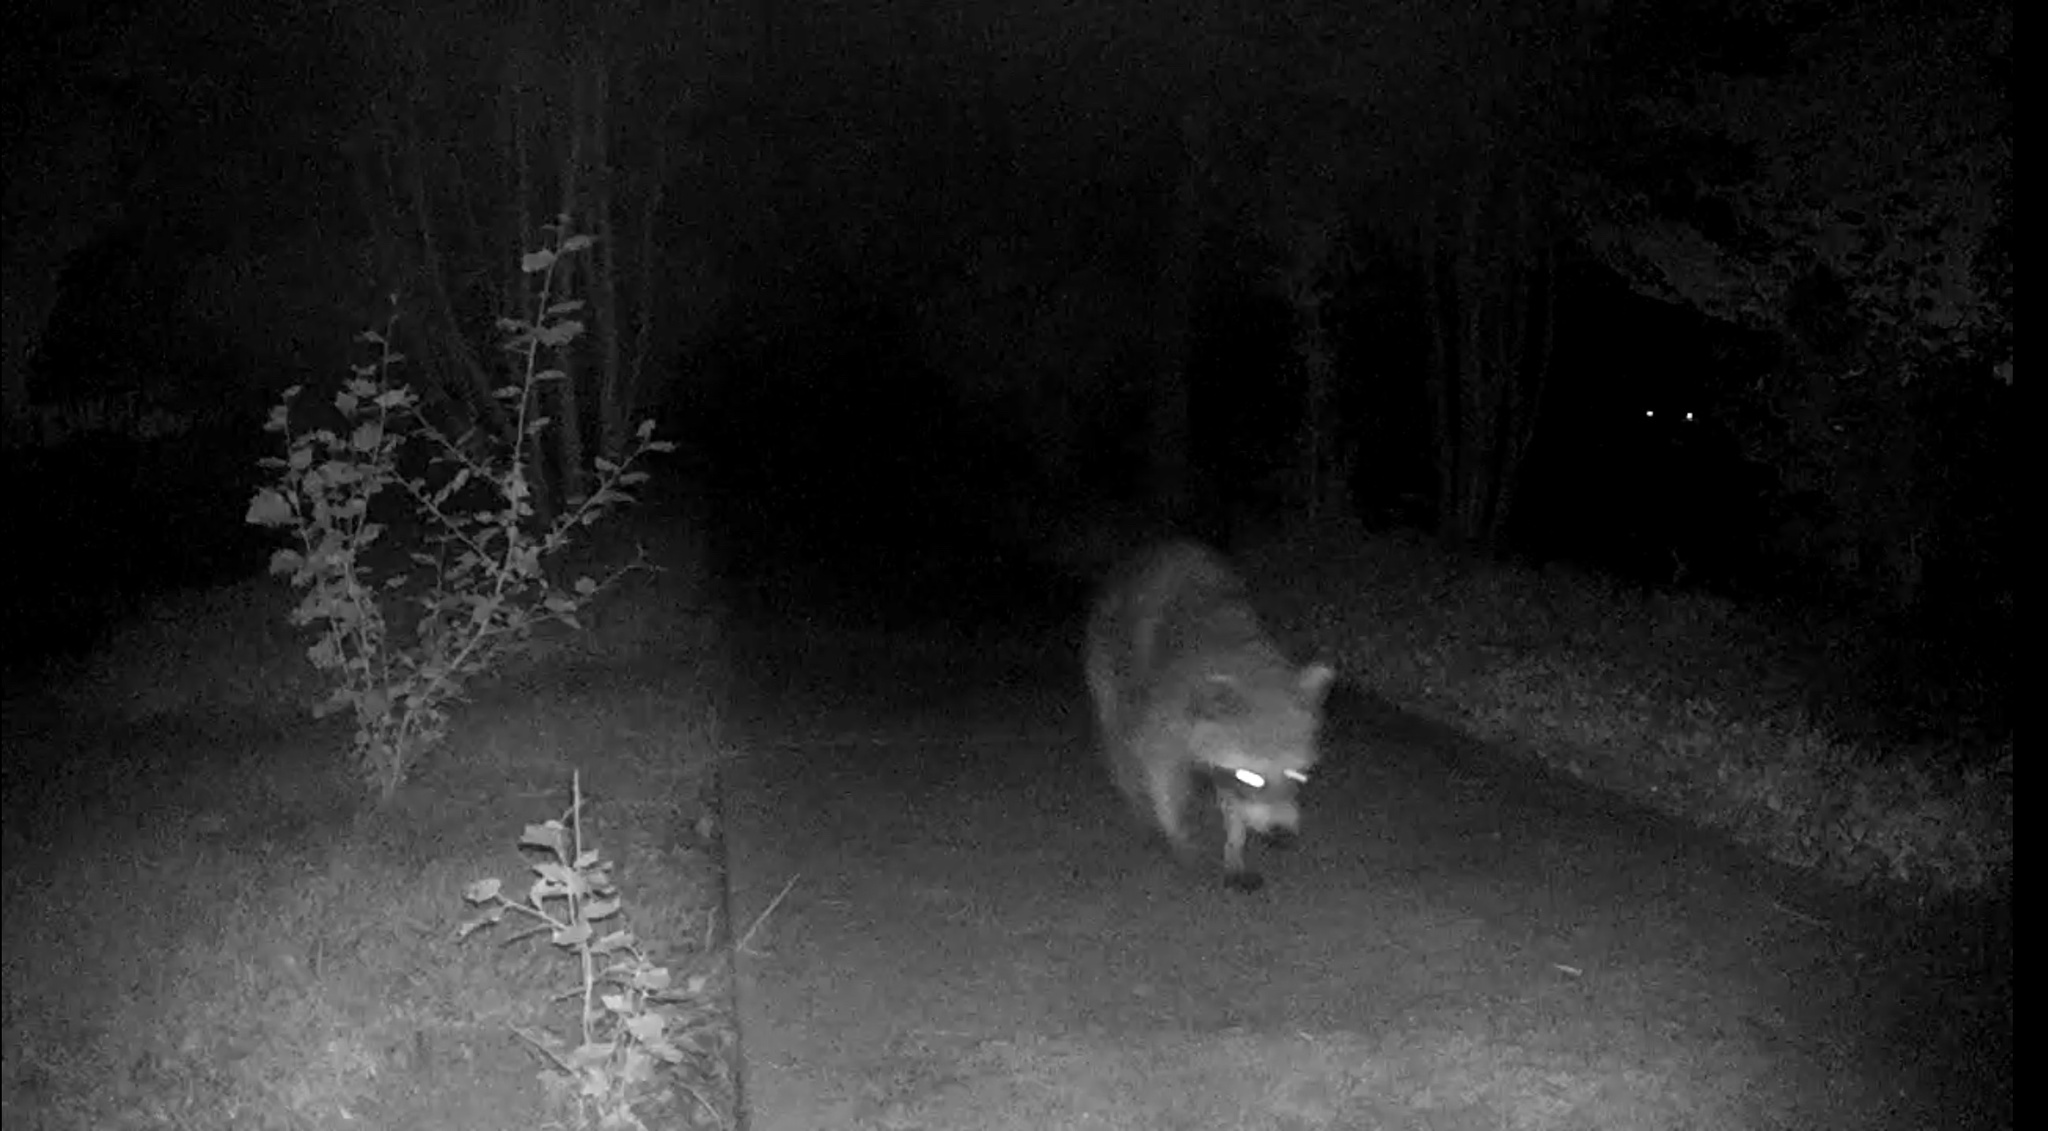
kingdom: Animalia
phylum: Chordata
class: Mammalia
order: Carnivora
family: Procyonidae
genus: Procyon
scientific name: Procyon lotor
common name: Raccoon
